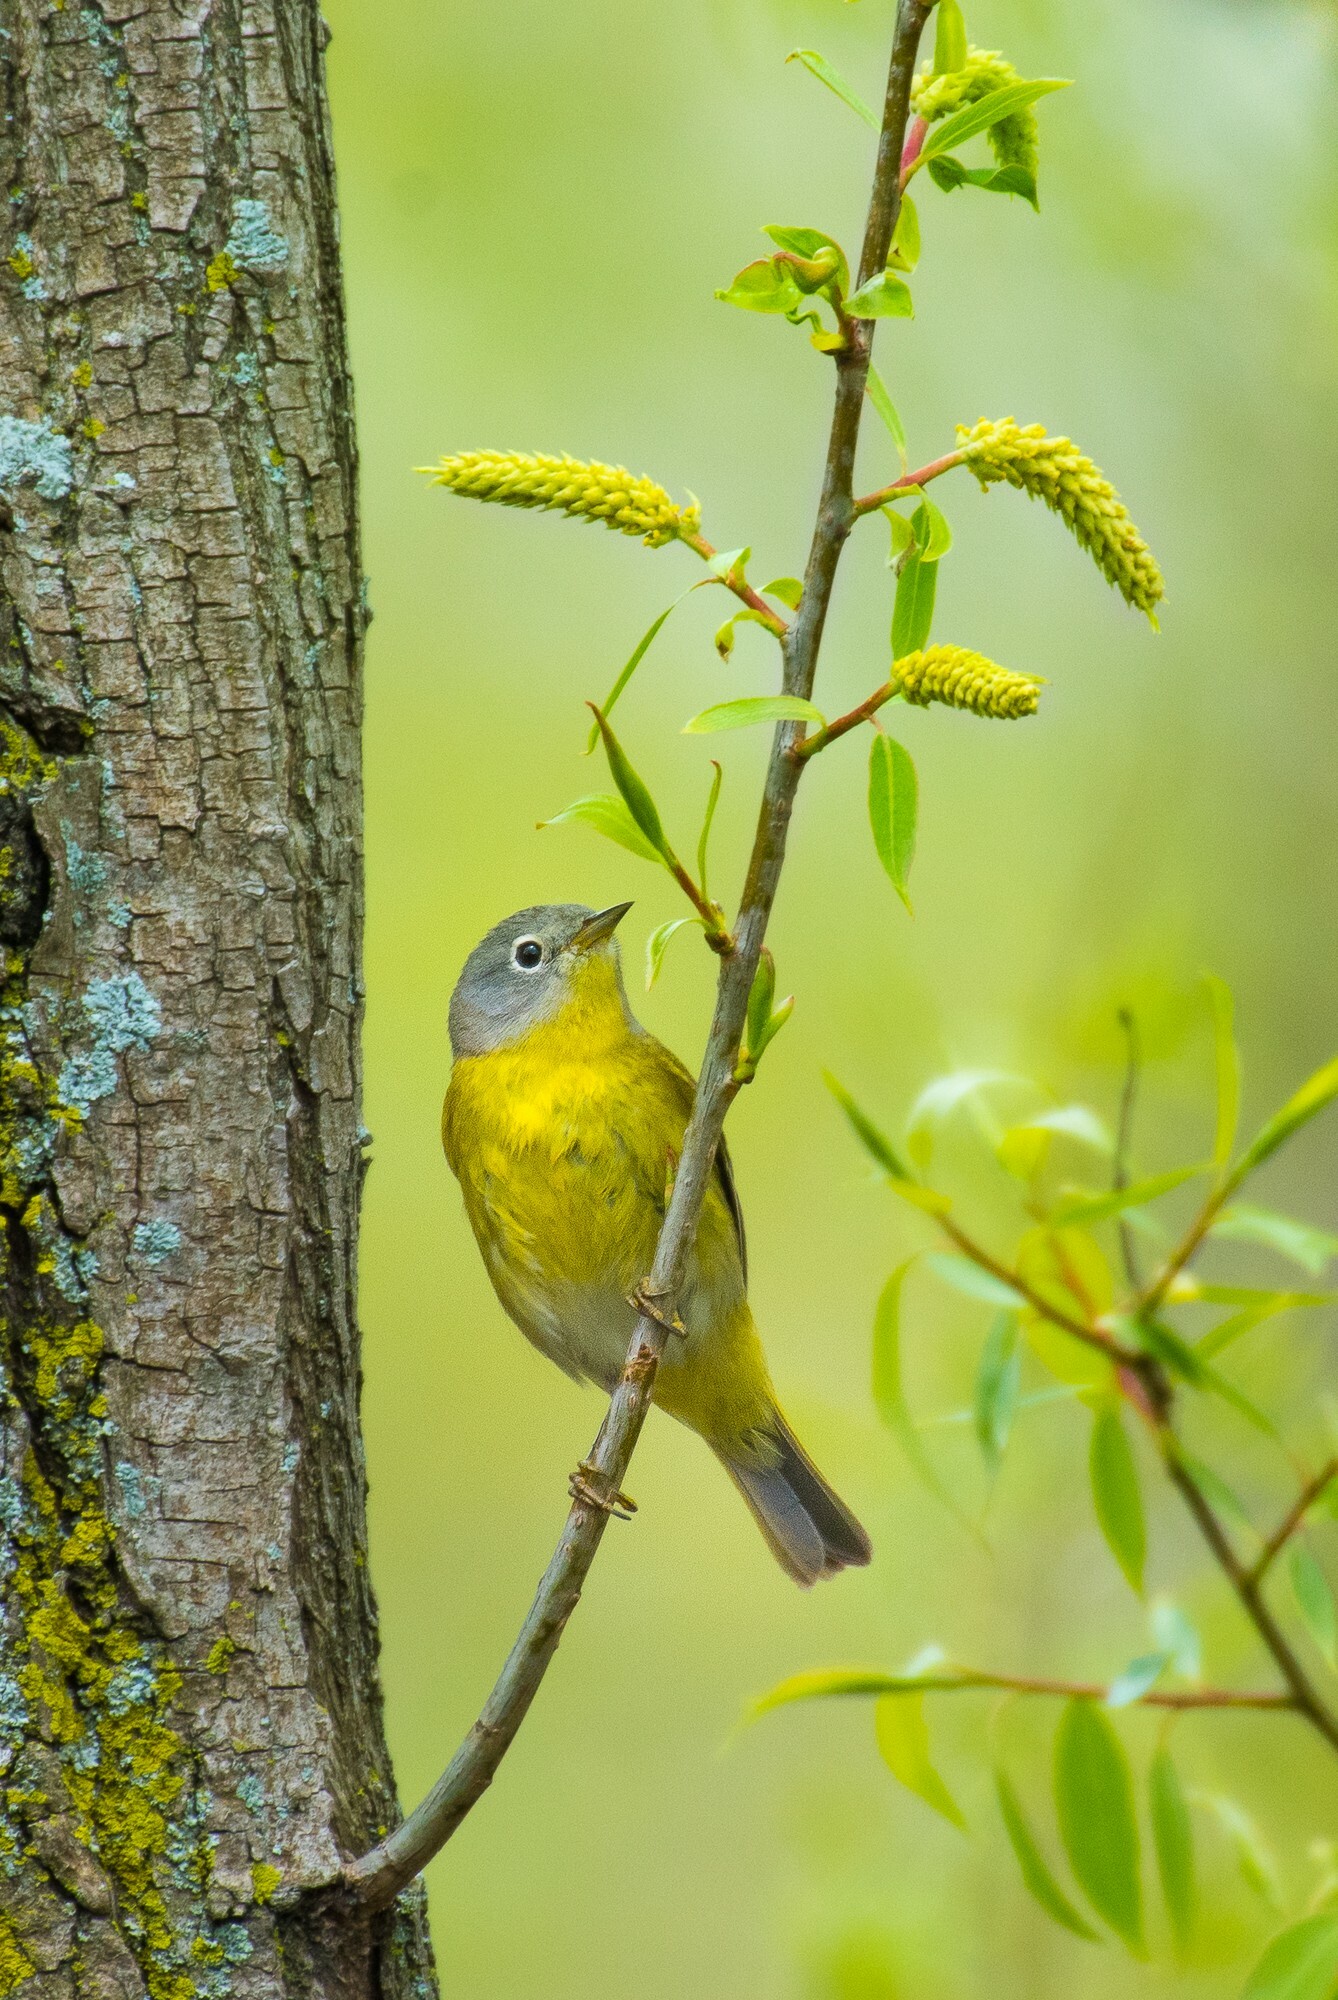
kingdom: Animalia
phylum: Chordata
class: Aves
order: Passeriformes
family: Parulidae
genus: Leiothlypis
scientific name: Leiothlypis ruficapilla
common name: Nashville warbler
